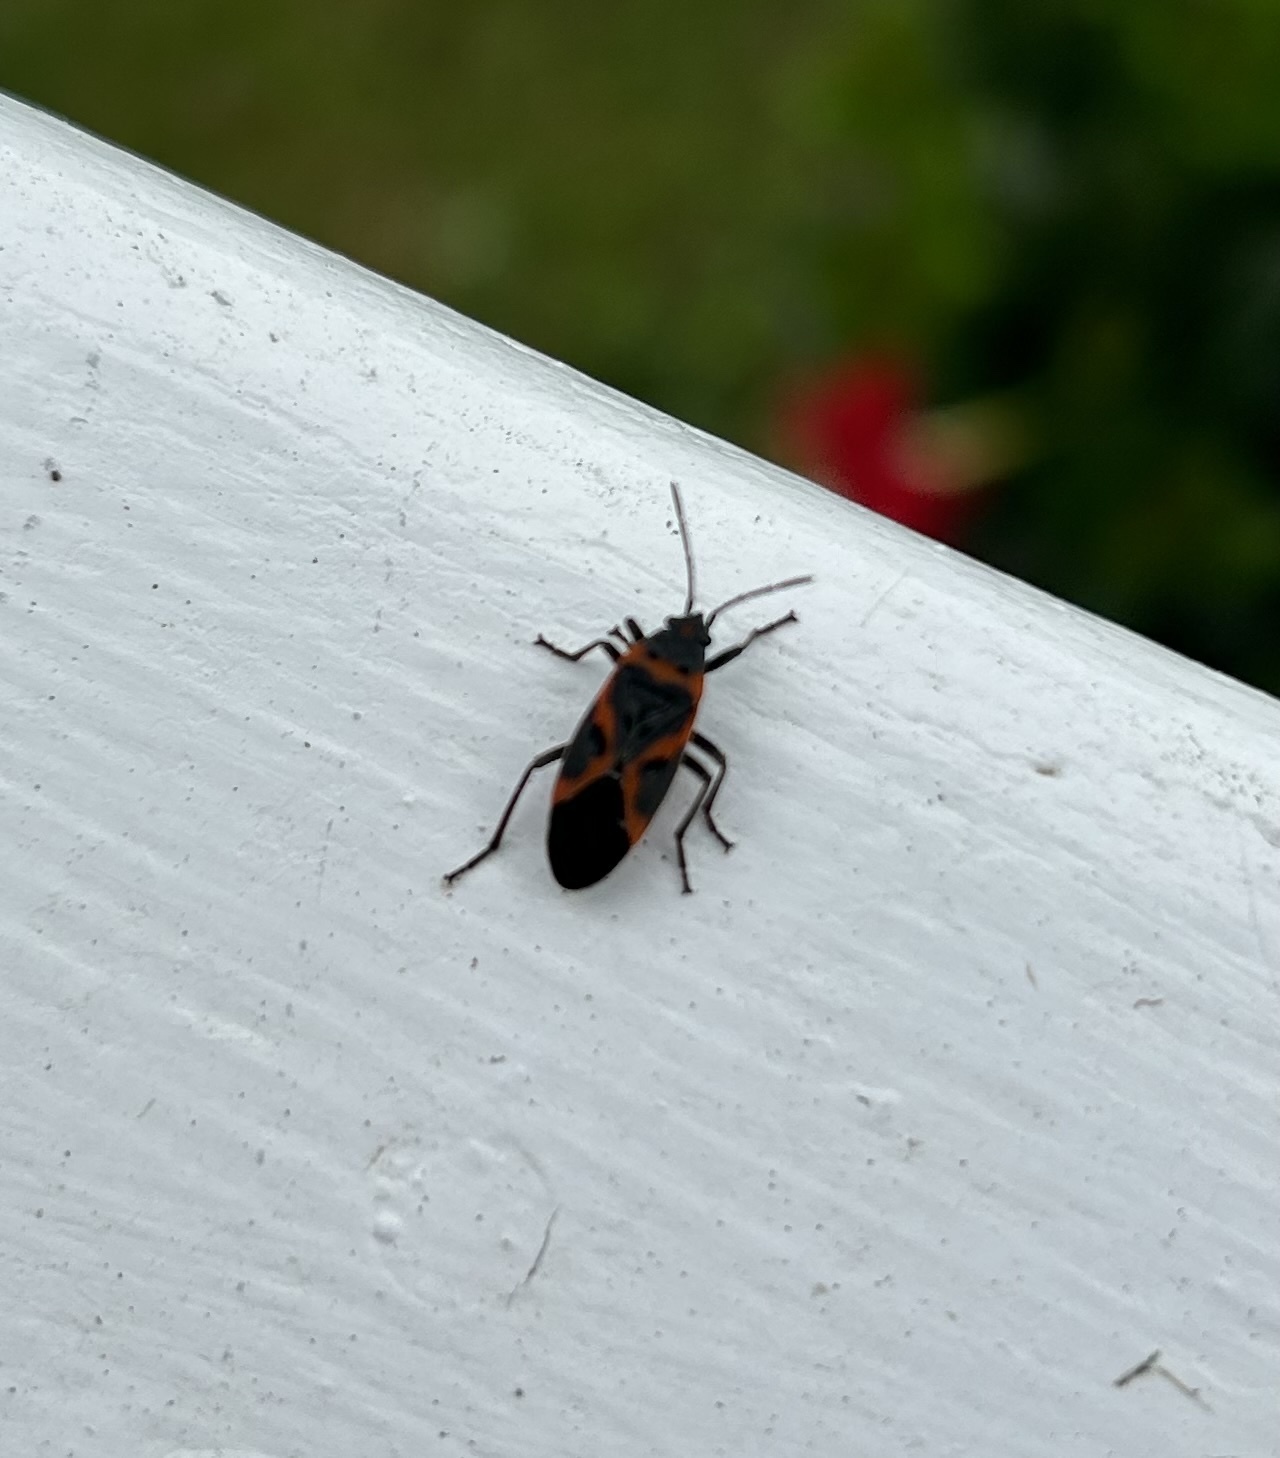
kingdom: Animalia
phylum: Arthropoda
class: Insecta
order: Hemiptera
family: Lygaeidae
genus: Lygaeus
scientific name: Lygaeus kalmii
